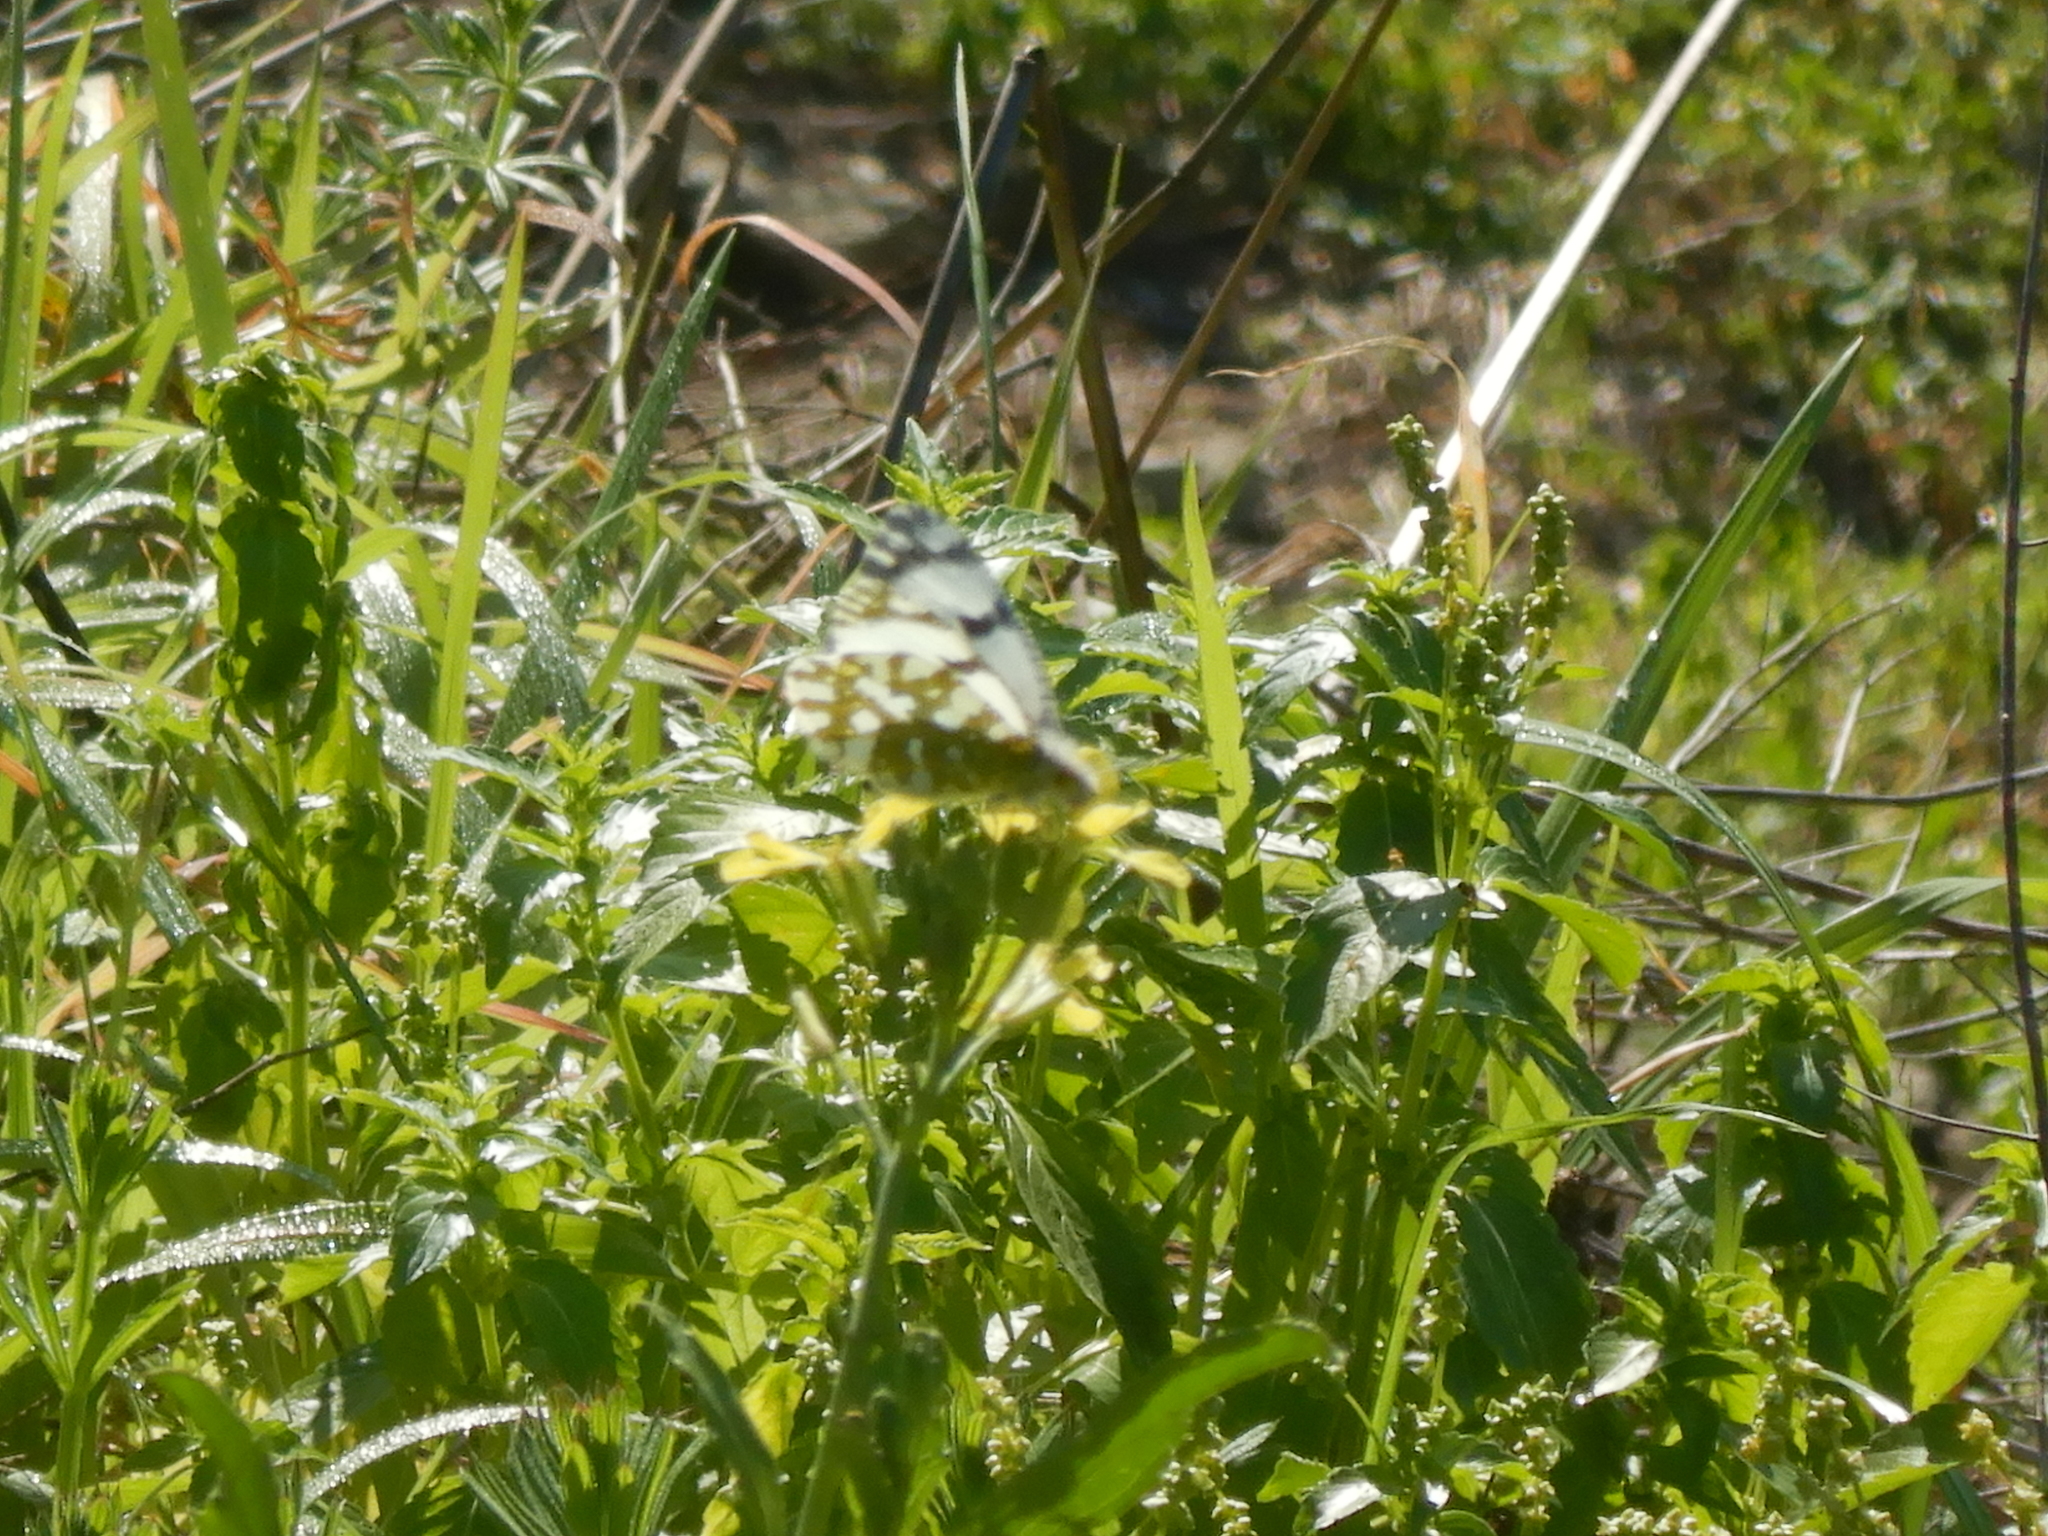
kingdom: Animalia
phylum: Arthropoda
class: Insecta
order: Lepidoptera
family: Pieridae
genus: Euchloe
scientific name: Euchloe ausonia
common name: Eastern dappled white
